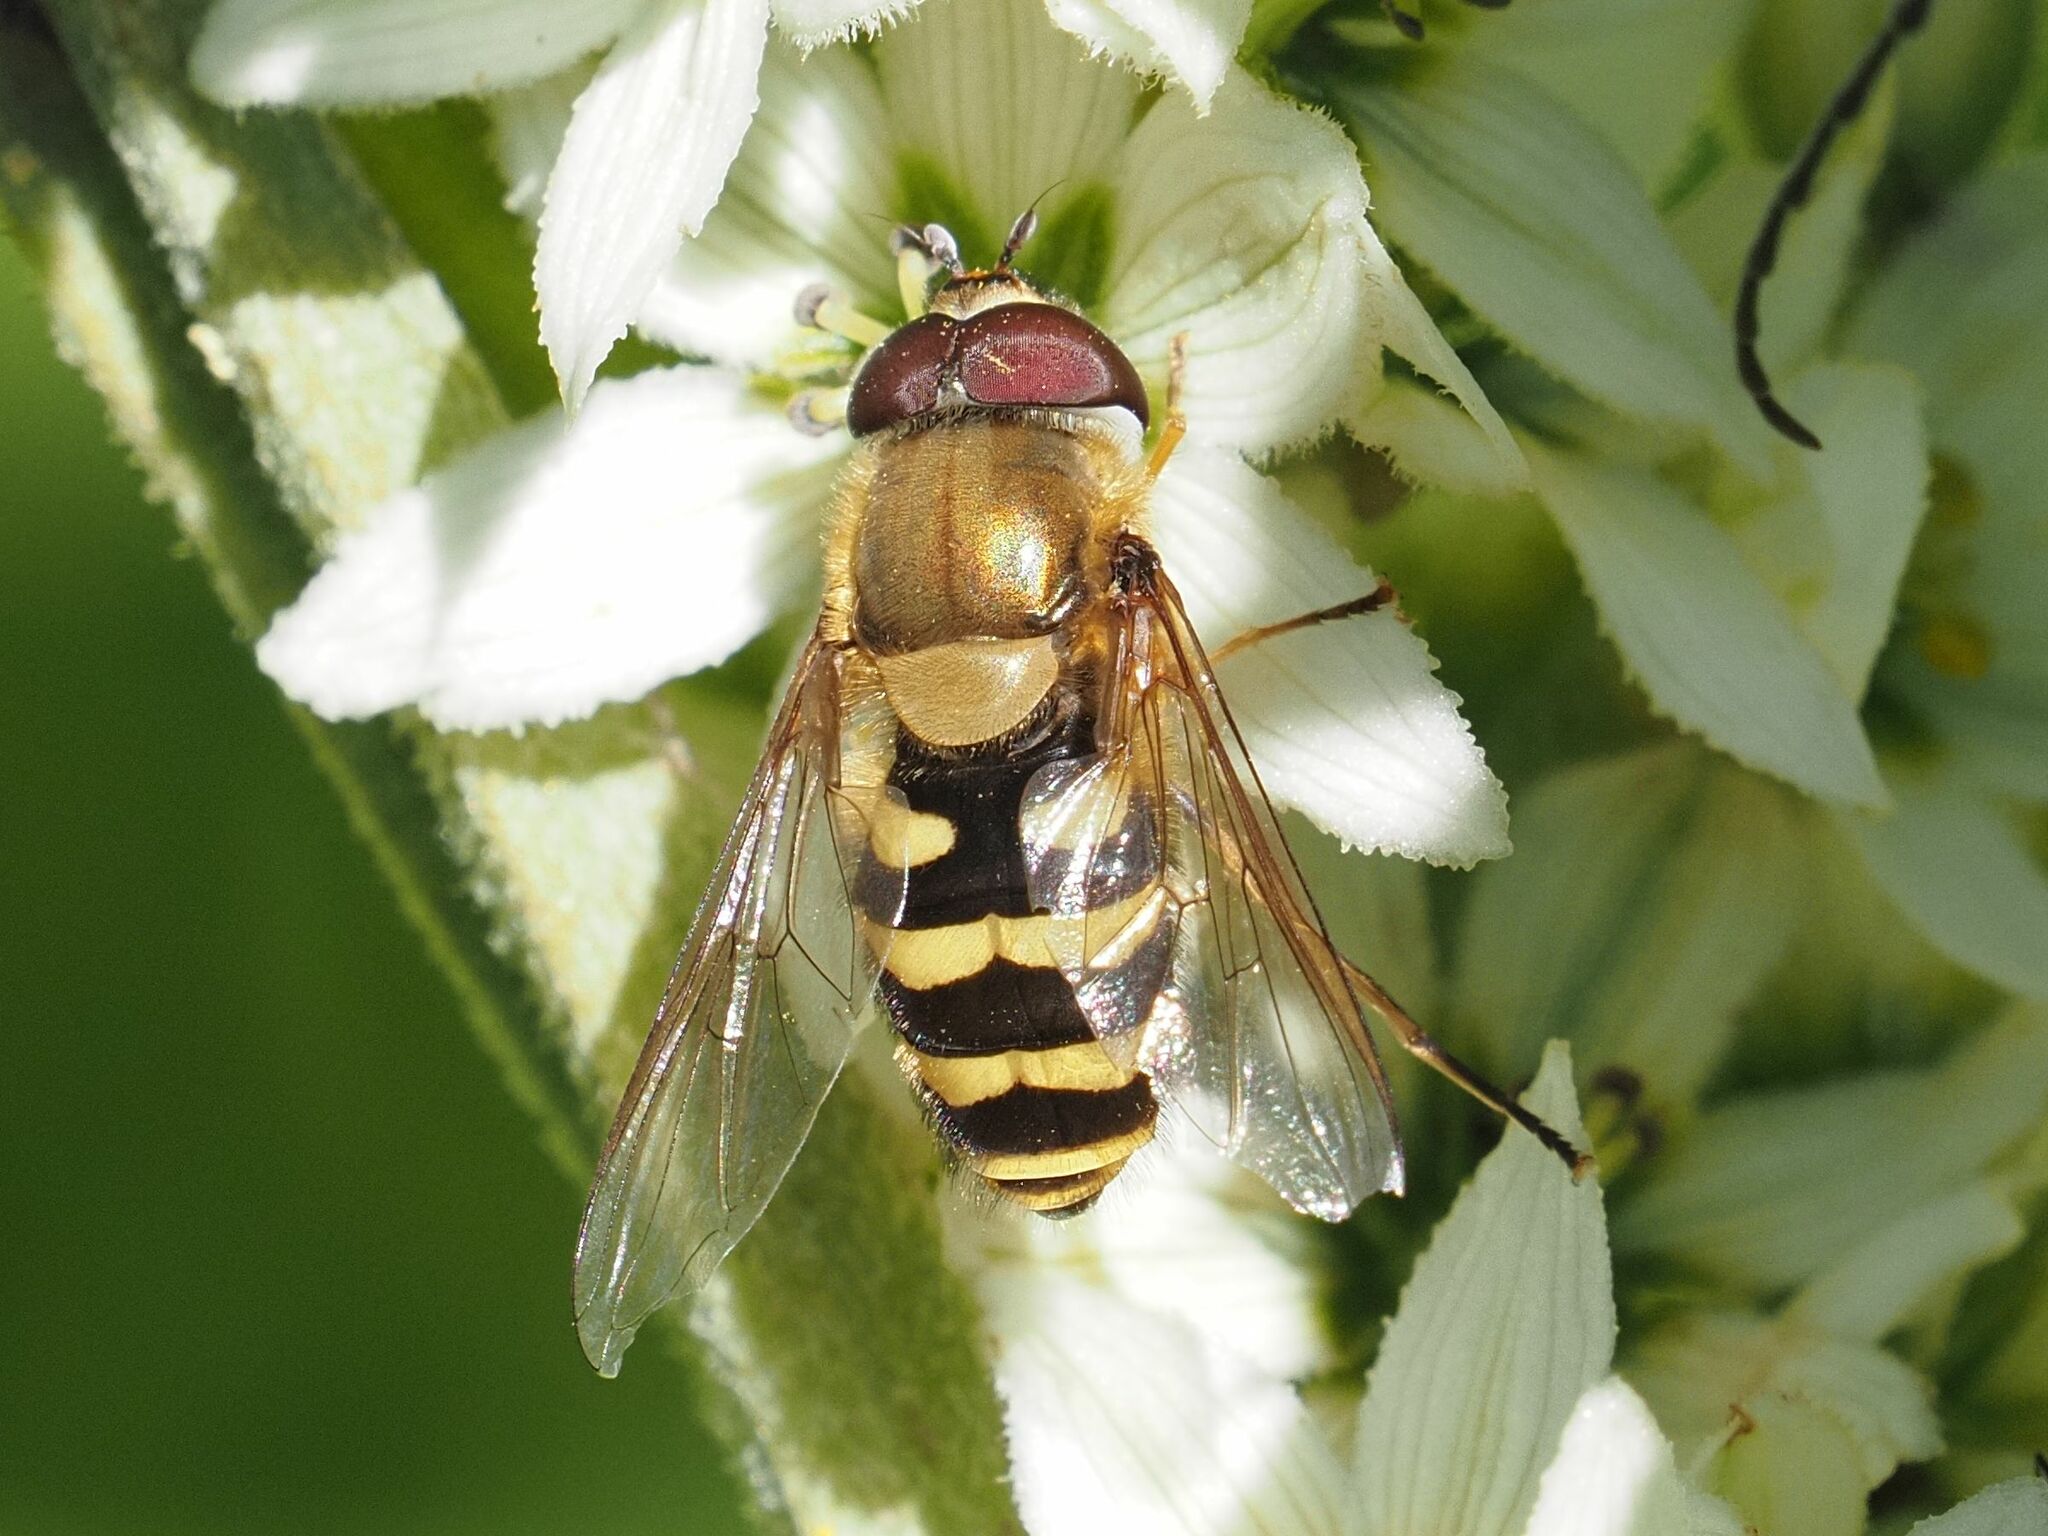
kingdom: Animalia
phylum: Arthropoda
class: Insecta
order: Diptera
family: Syrphidae
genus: Syrphus
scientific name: Syrphus torvus
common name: Hairy-eyed flower fly
